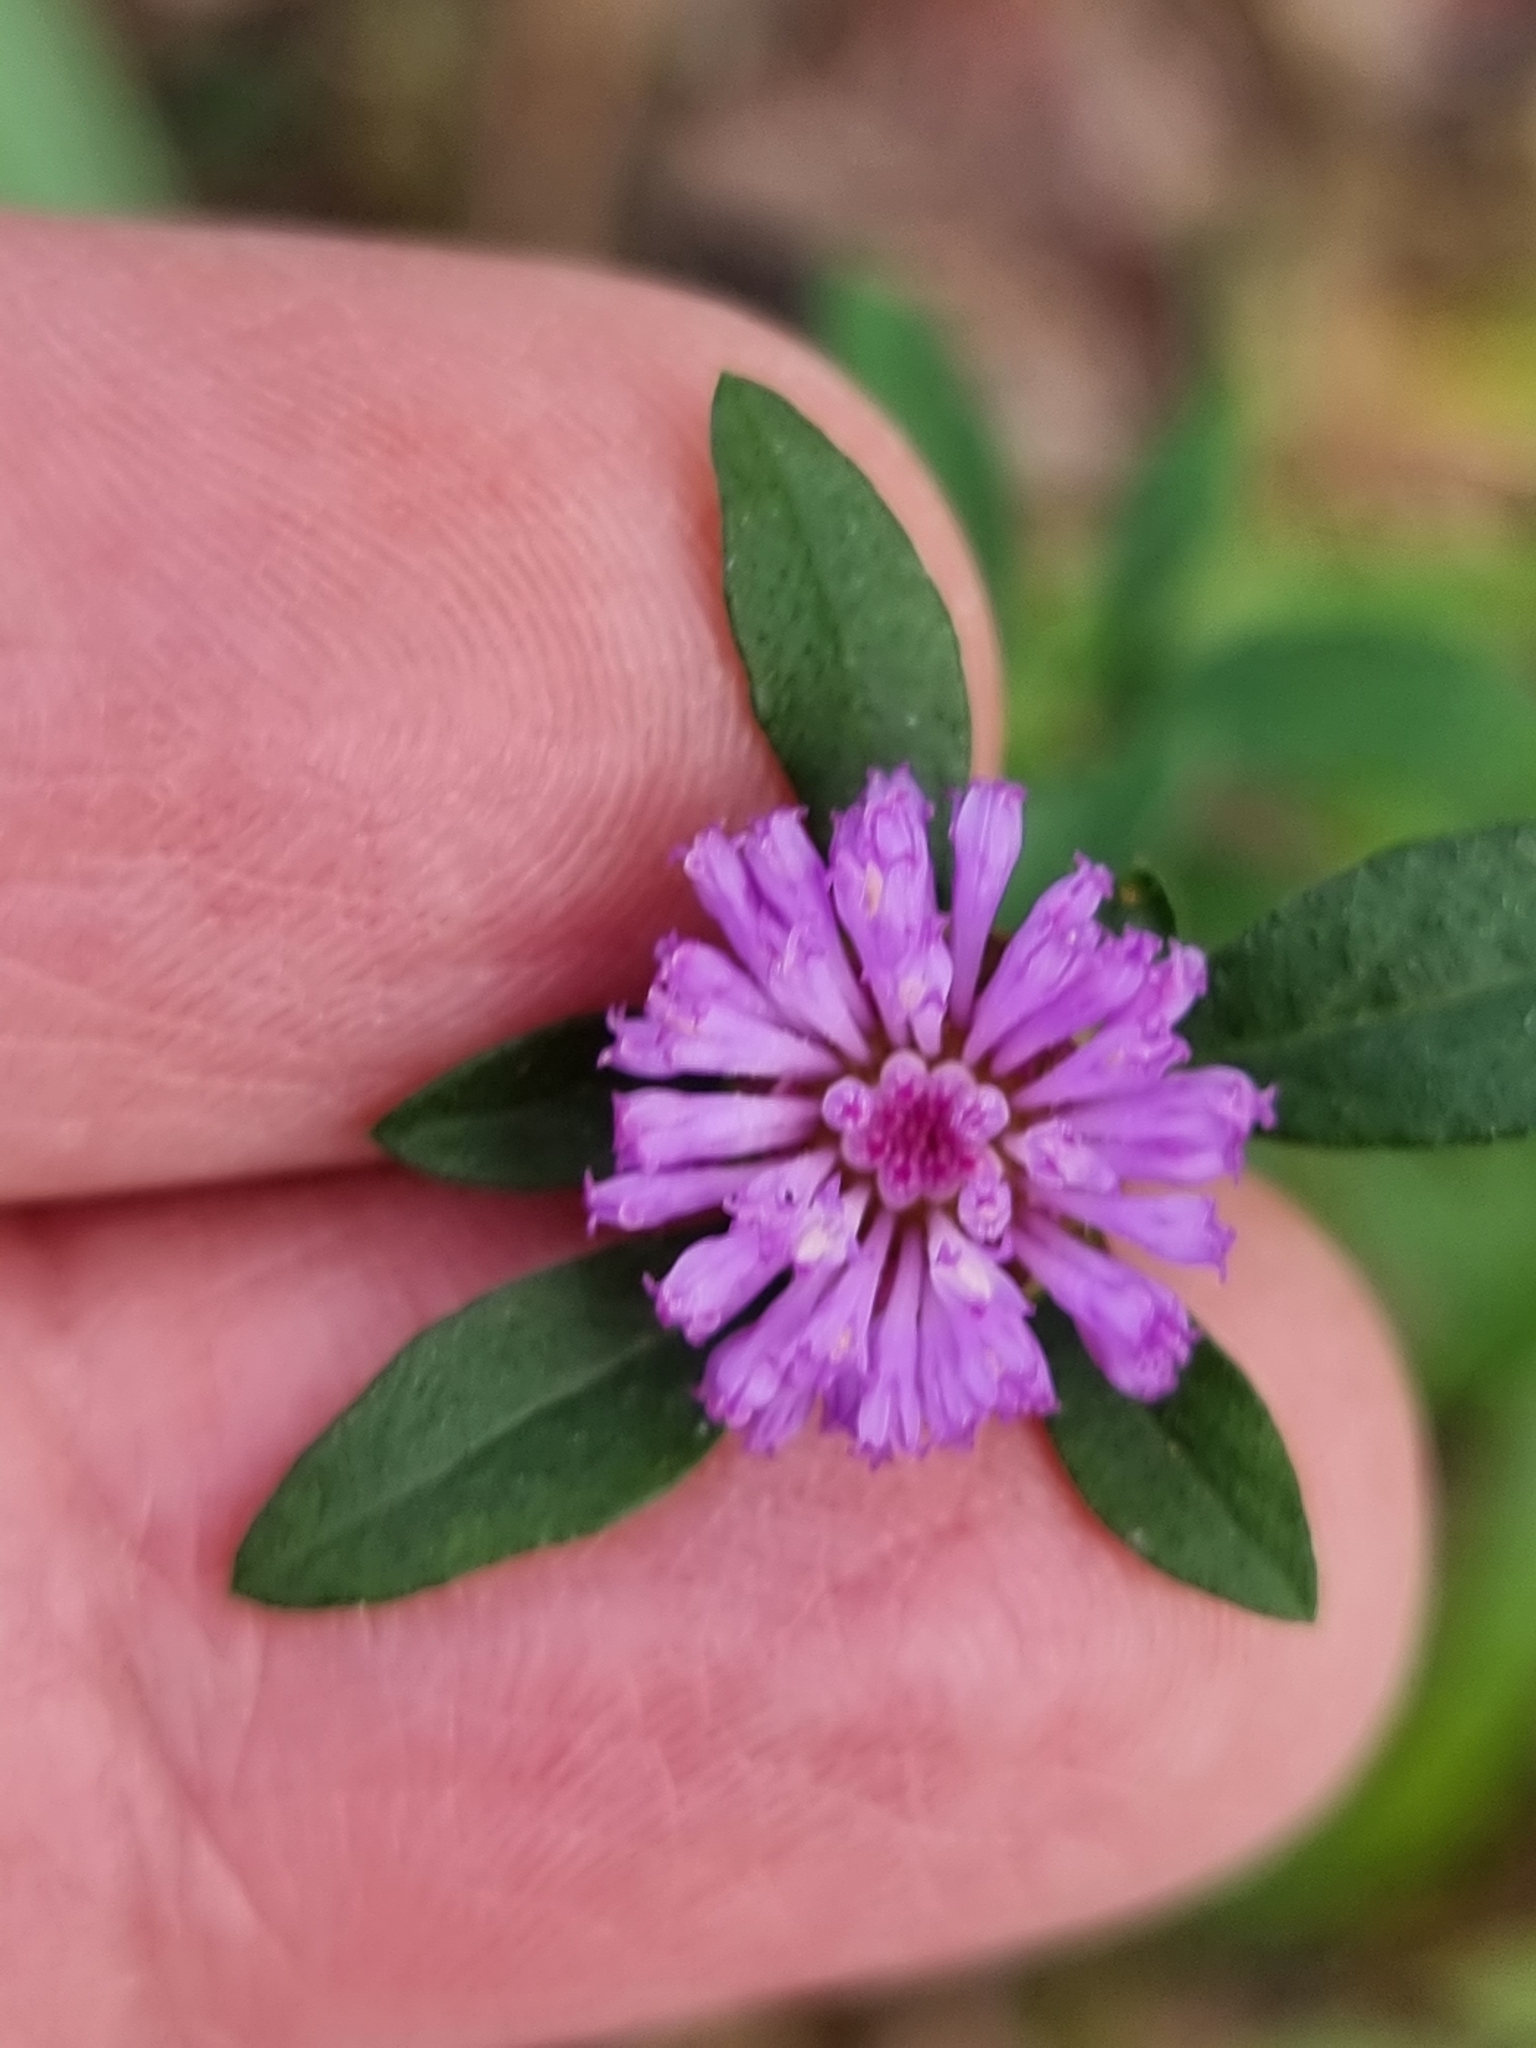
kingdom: Plantae
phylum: Tracheophyta
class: Magnoliopsida
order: Asterales
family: Asteraceae
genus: Centratherum
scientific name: Centratherum punctatum
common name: Larkdaisy
